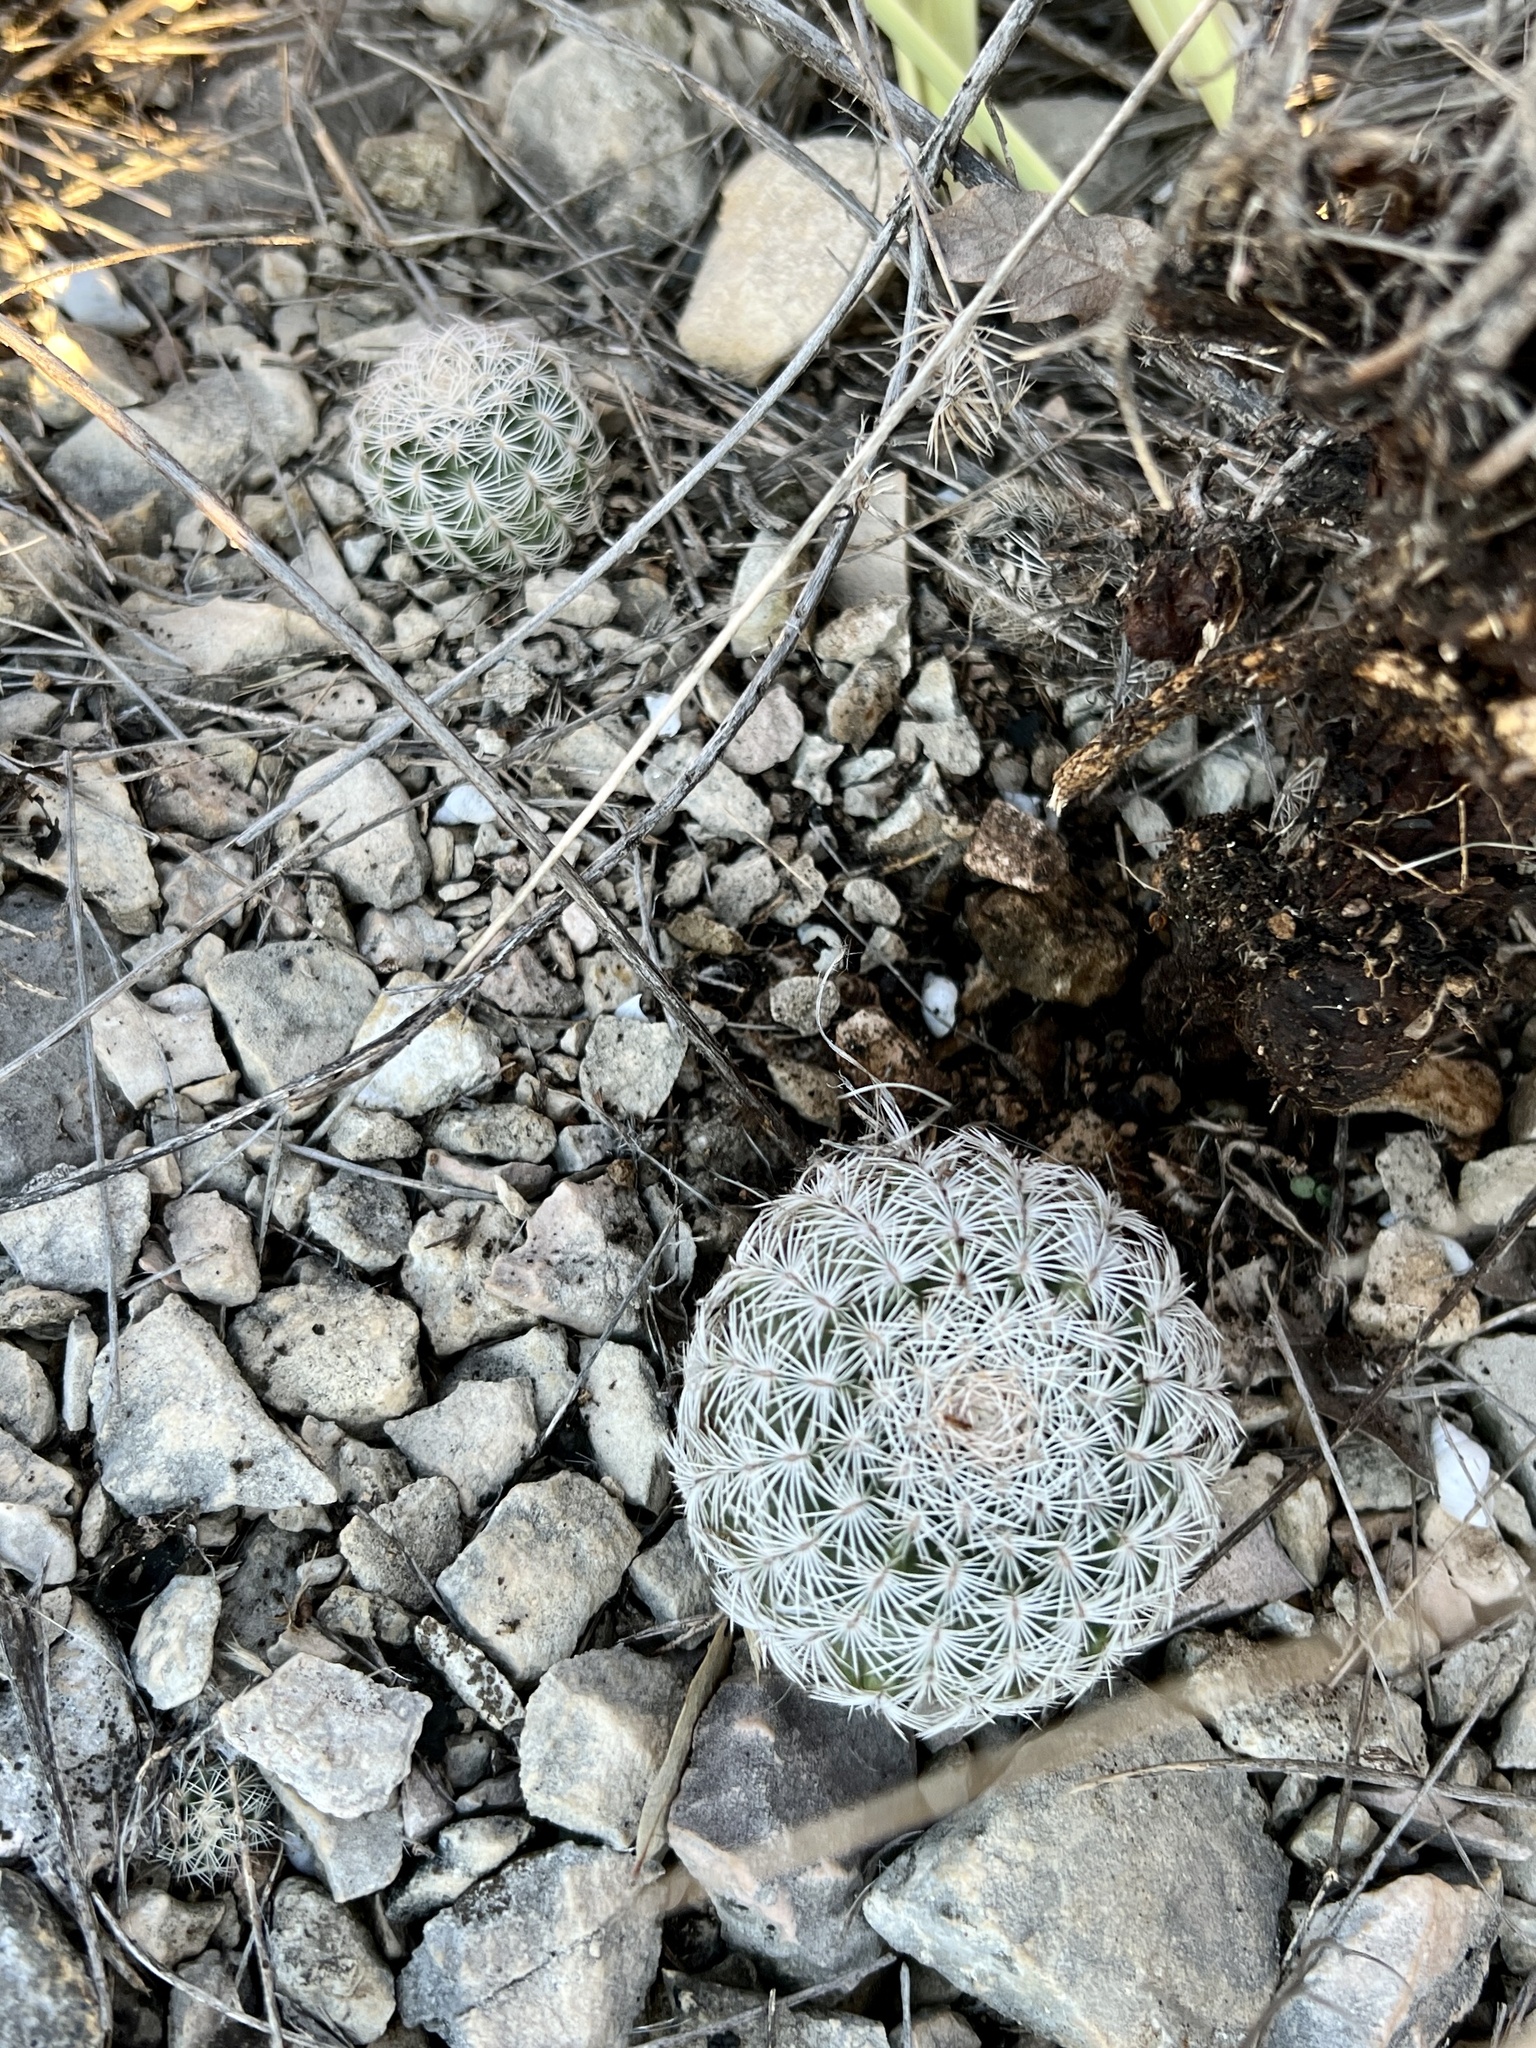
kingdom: Plantae
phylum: Tracheophyta
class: Magnoliopsida
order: Caryophyllales
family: Cactaceae
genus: Echinocereus
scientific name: Echinocereus reichenbachii
